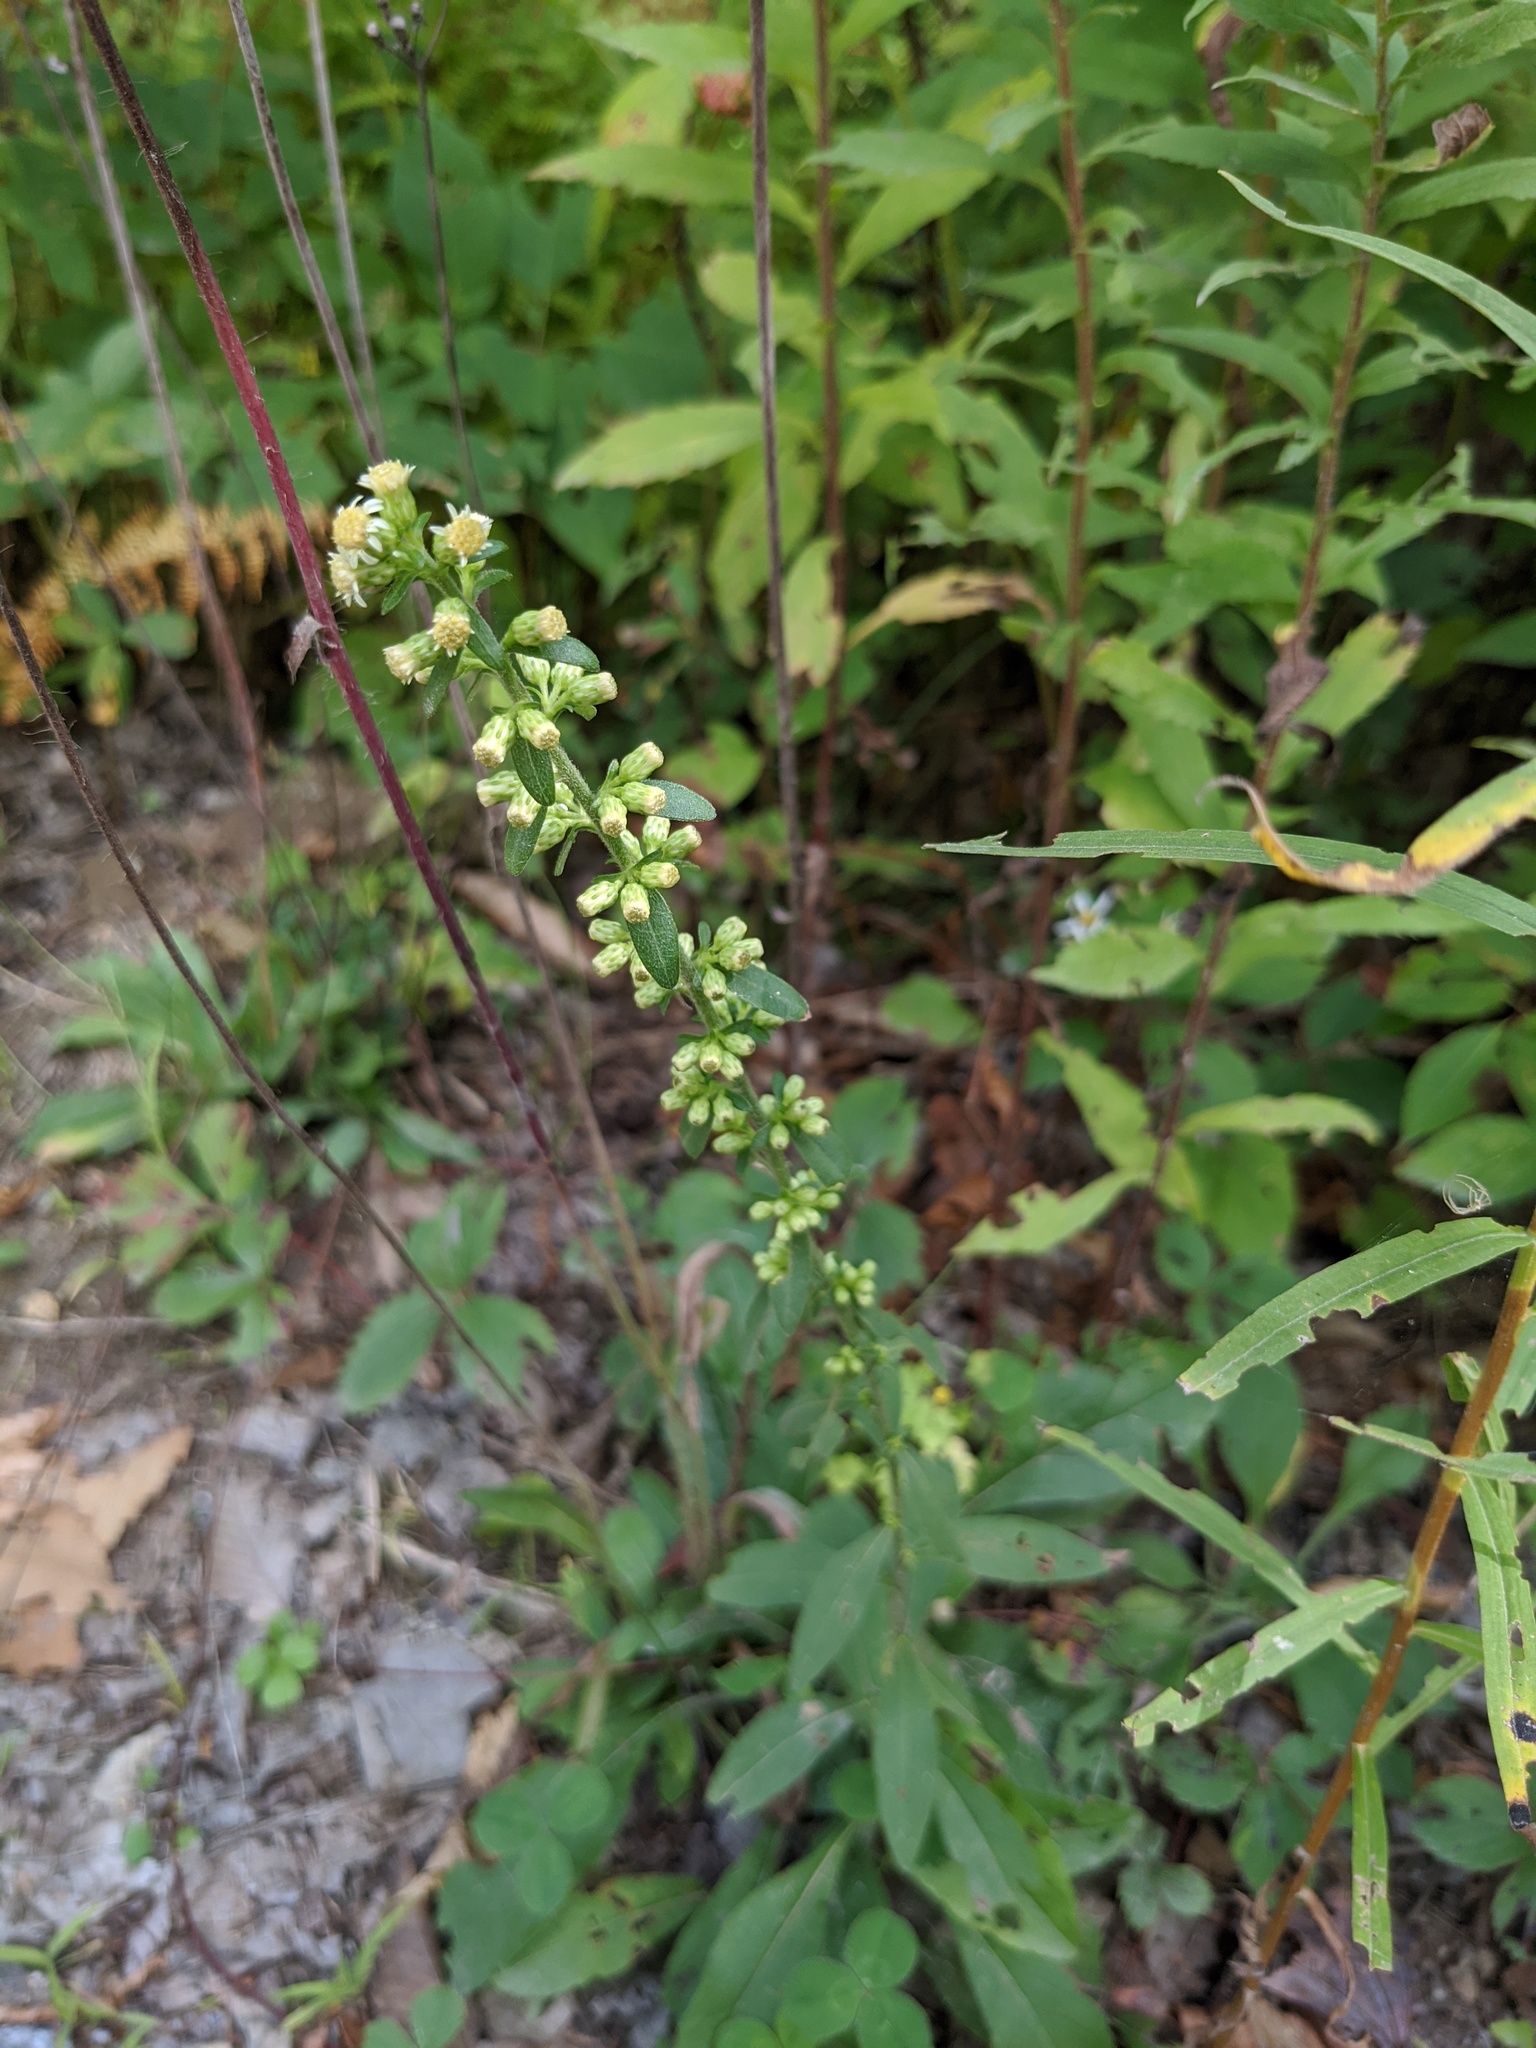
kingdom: Plantae
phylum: Tracheophyta
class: Magnoliopsida
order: Asterales
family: Asteraceae
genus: Solidago
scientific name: Solidago bicolor
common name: Silverrod
